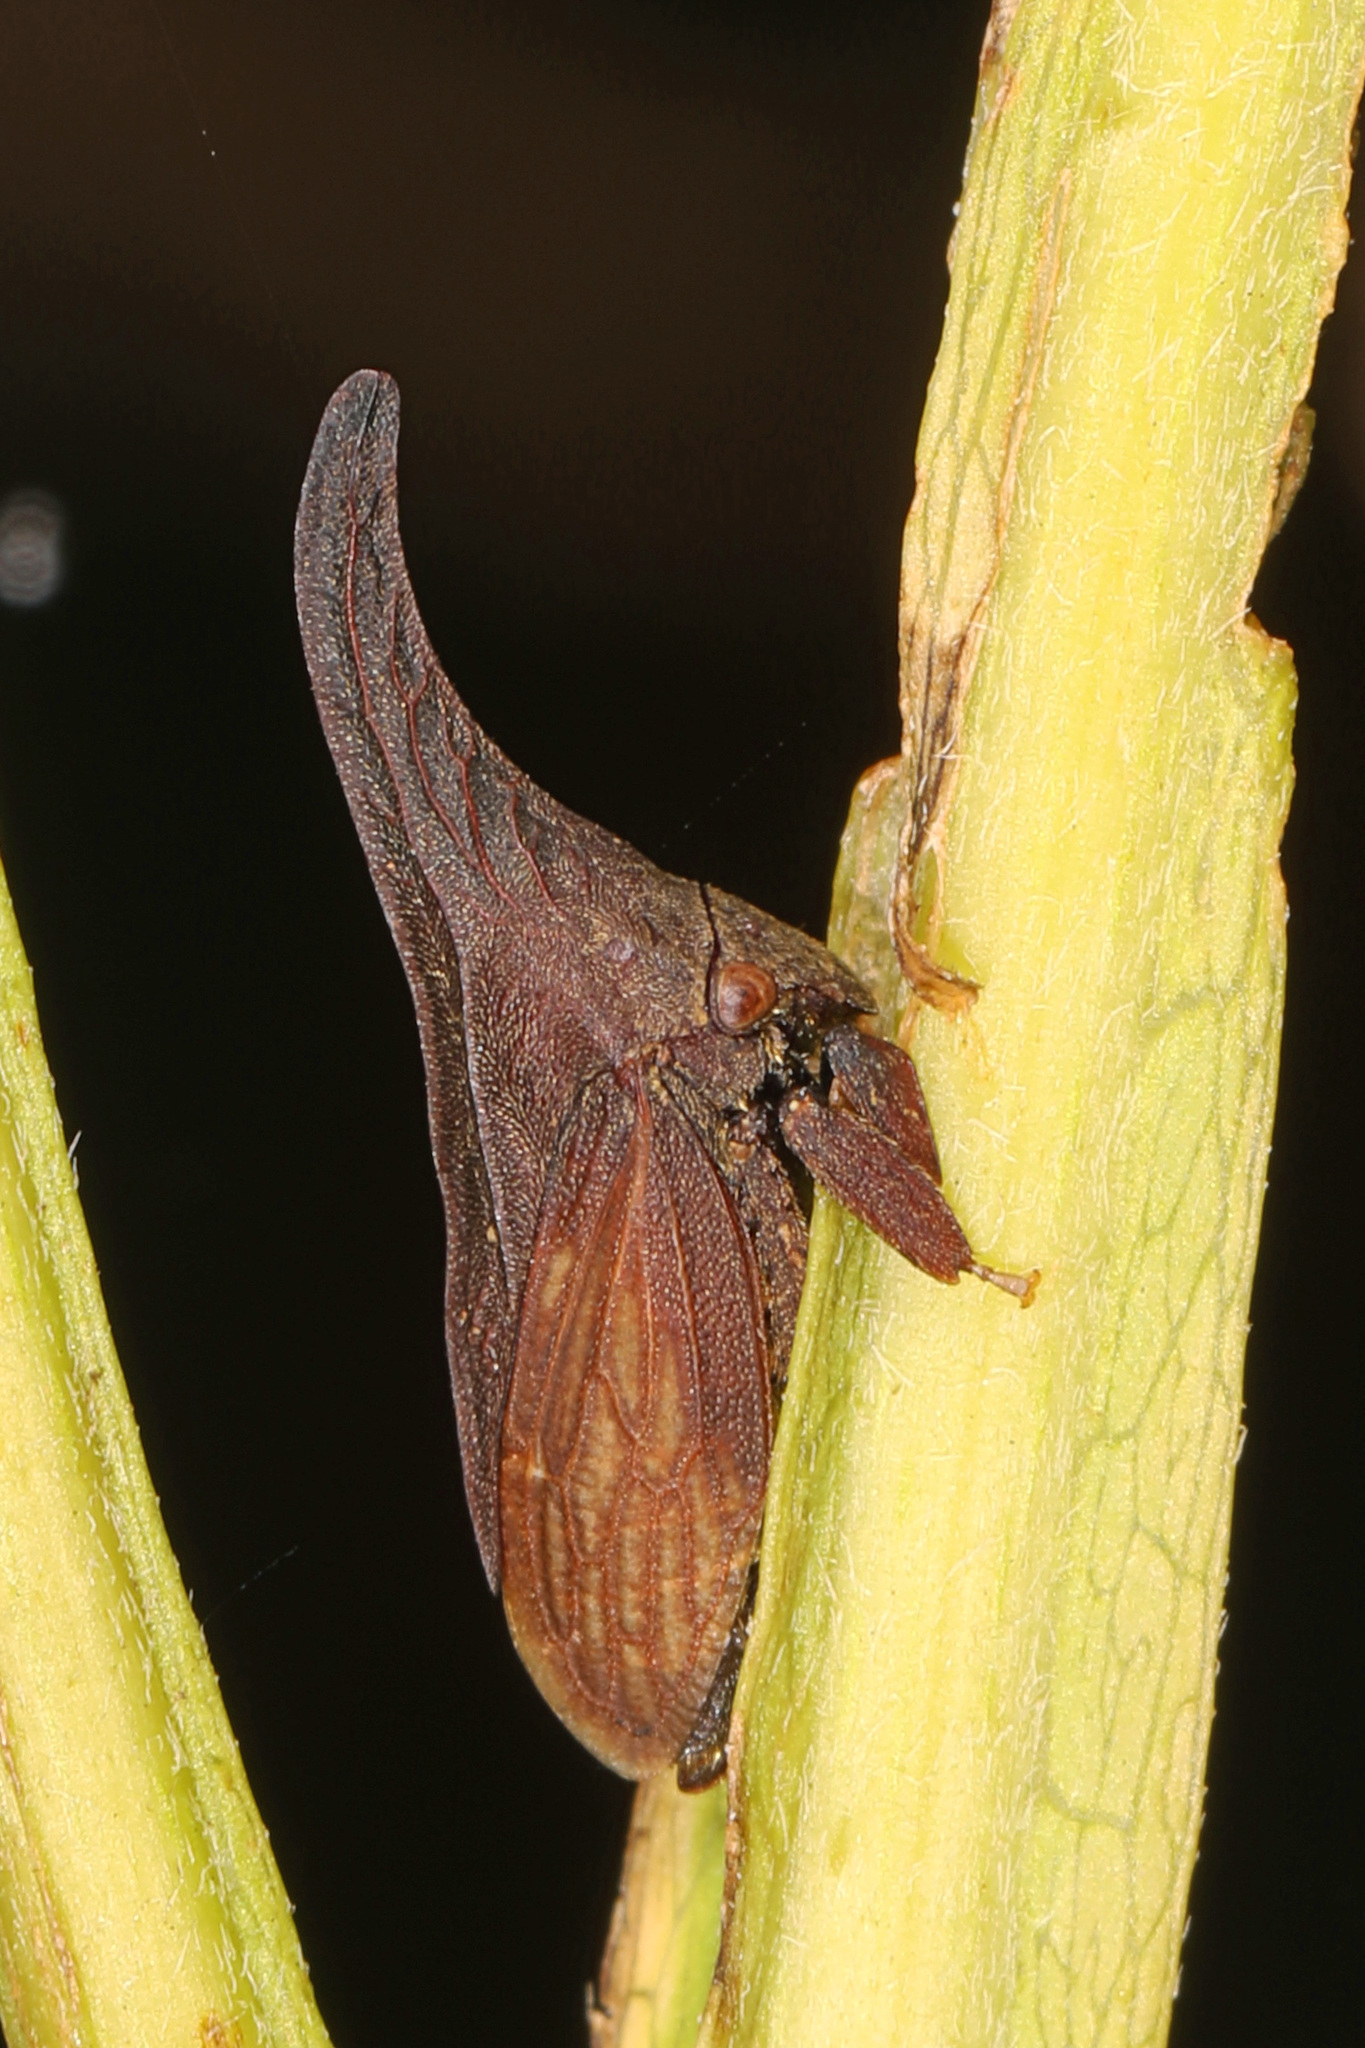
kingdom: Animalia
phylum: Arthropoda
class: Insecta
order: Hemiptera
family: Membracidae
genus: Enchenopa
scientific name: Enchenopa latipes
